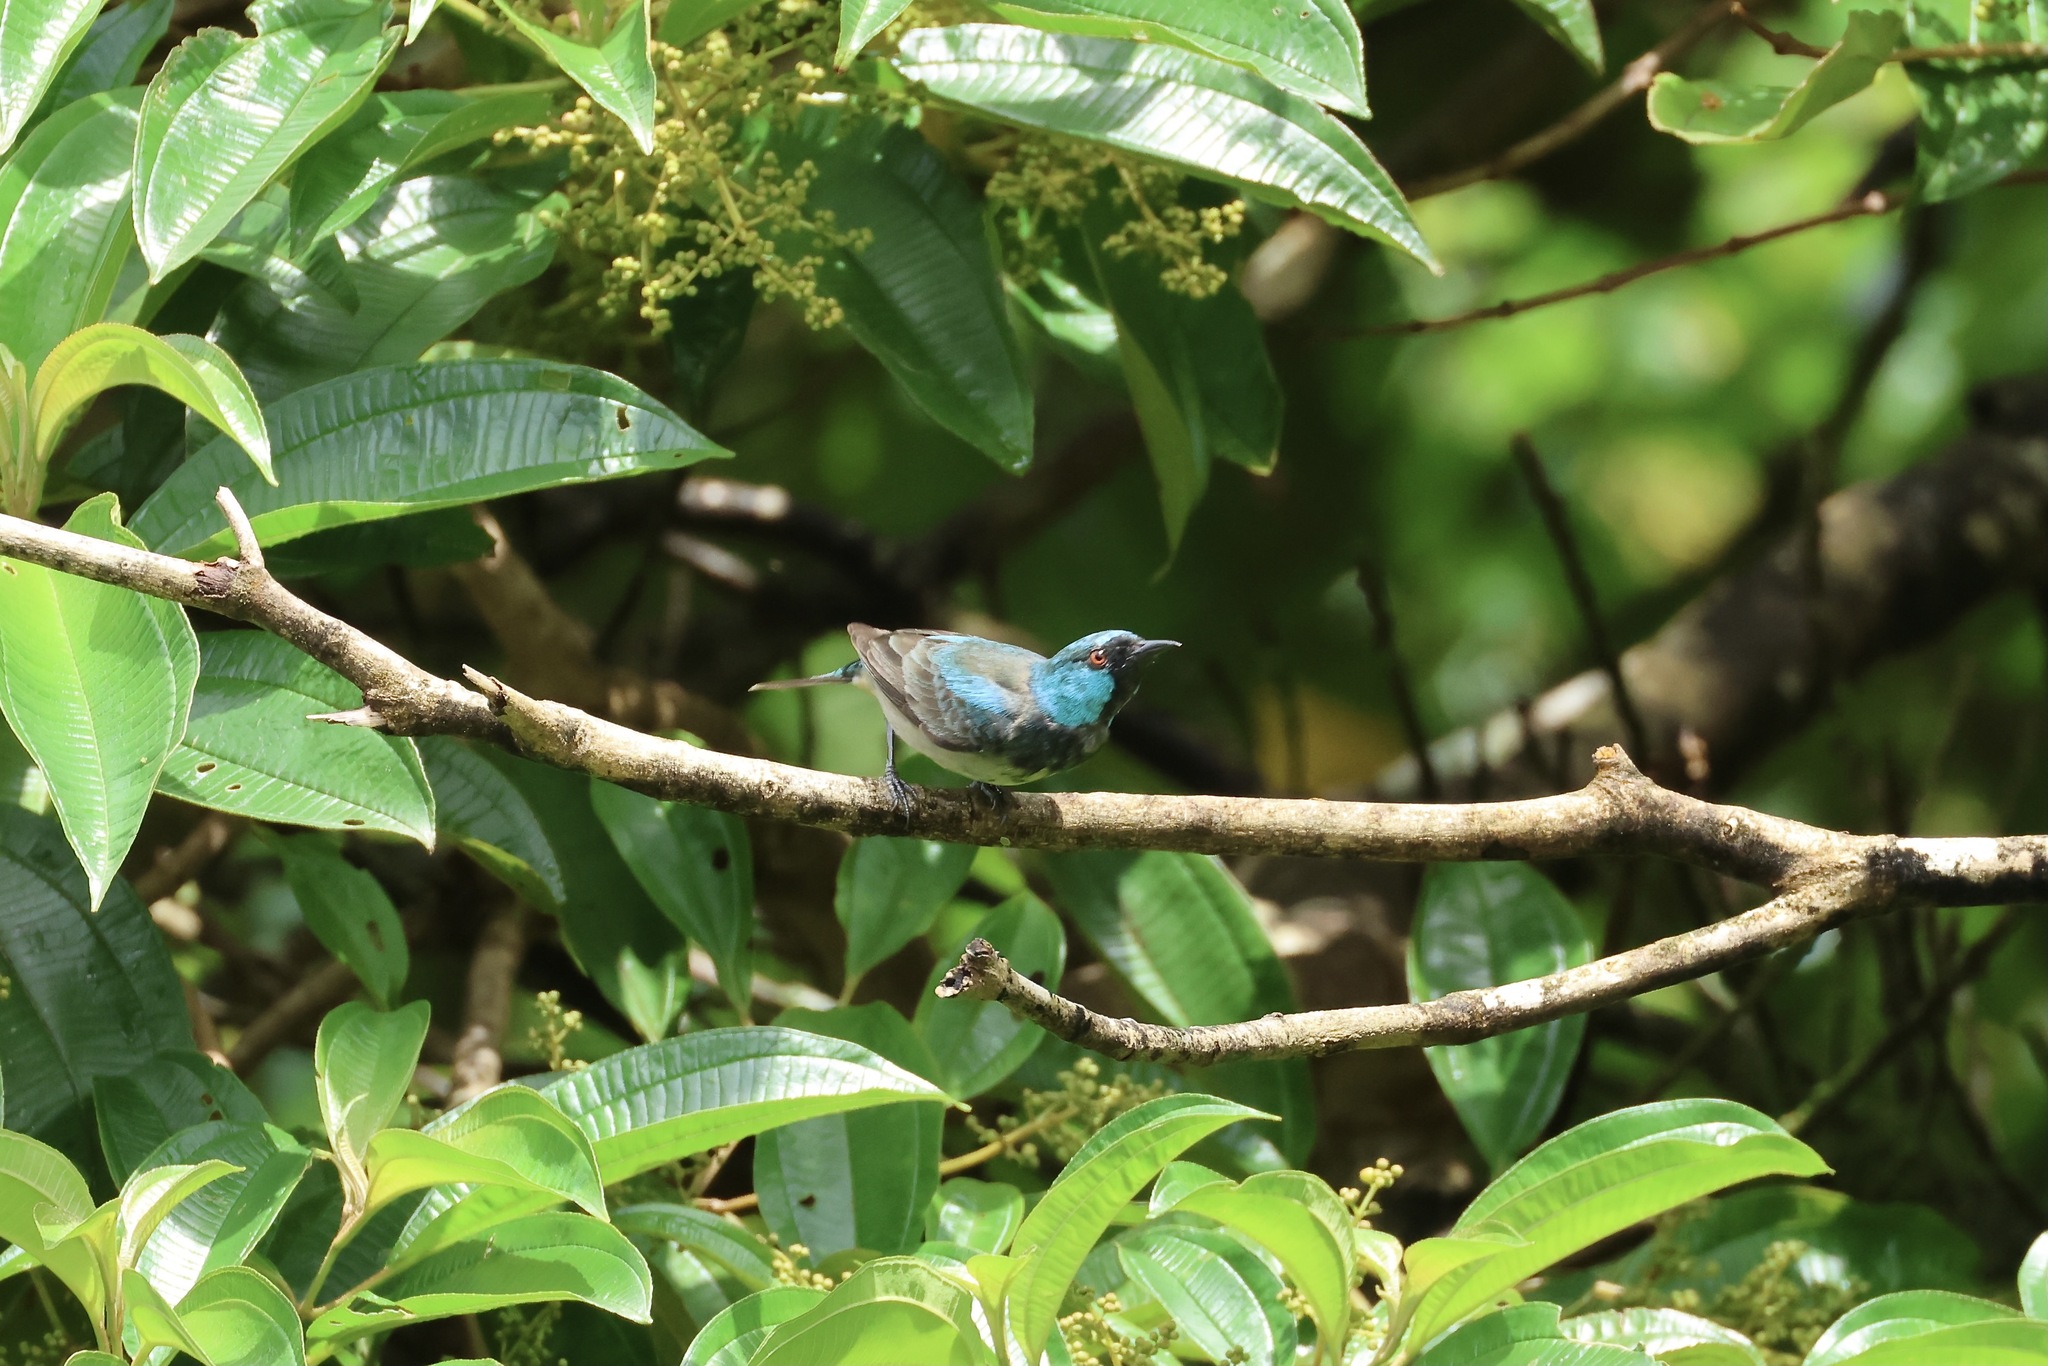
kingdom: Animalia
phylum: Chordata
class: Aves
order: Passeriformes
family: Thraupidae
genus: Dacnis
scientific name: Dacnis venusta
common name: Scarlet-thighed dacnis
